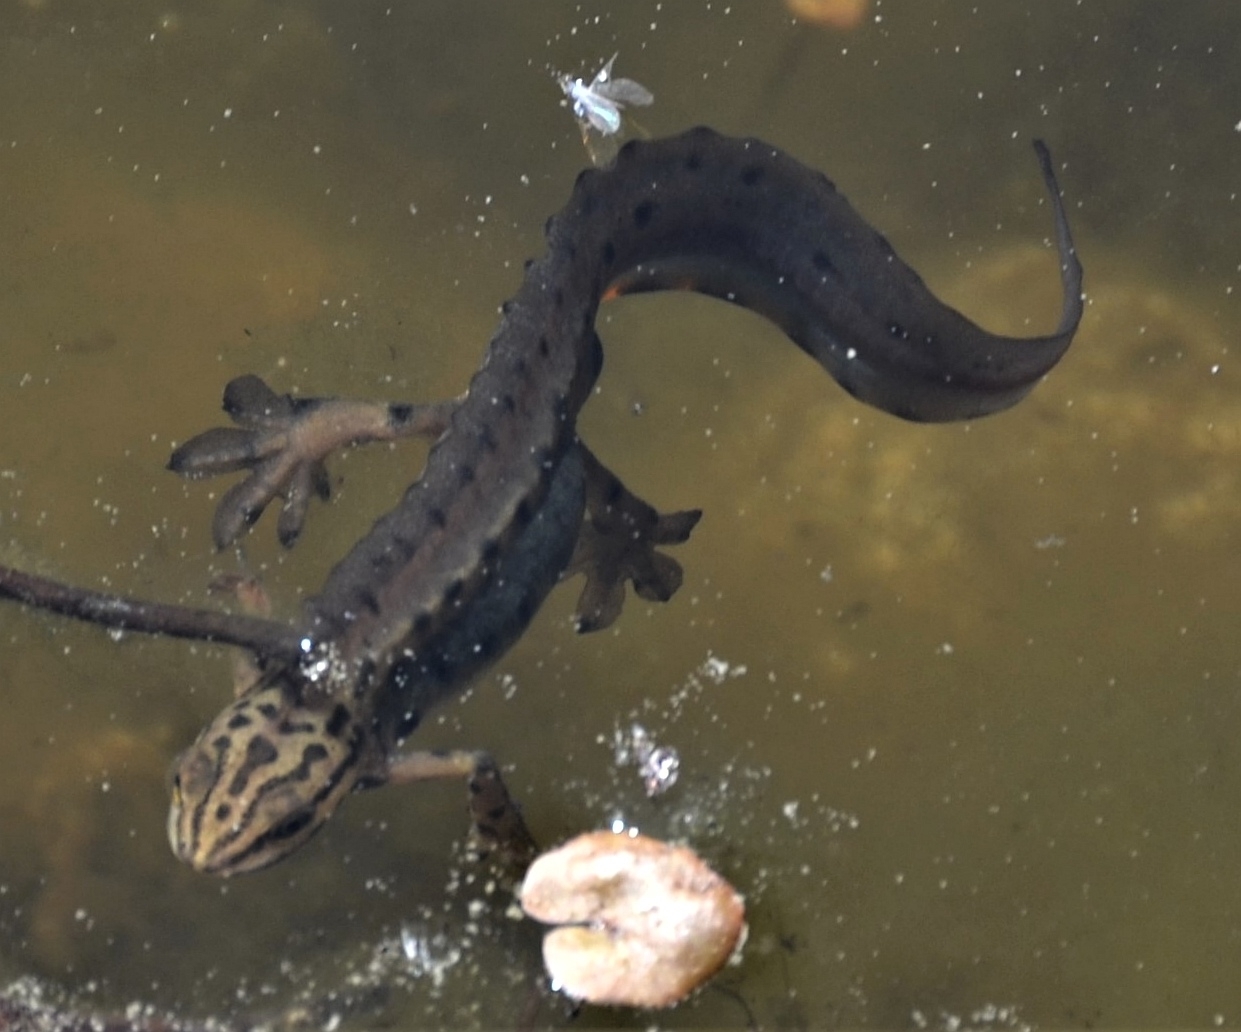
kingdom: Animalia
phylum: Chordata
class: Amphibia
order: Caudata
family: Salamandridae
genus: Lissotriton
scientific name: Lissotriton vulgaris
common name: Smooth newt
